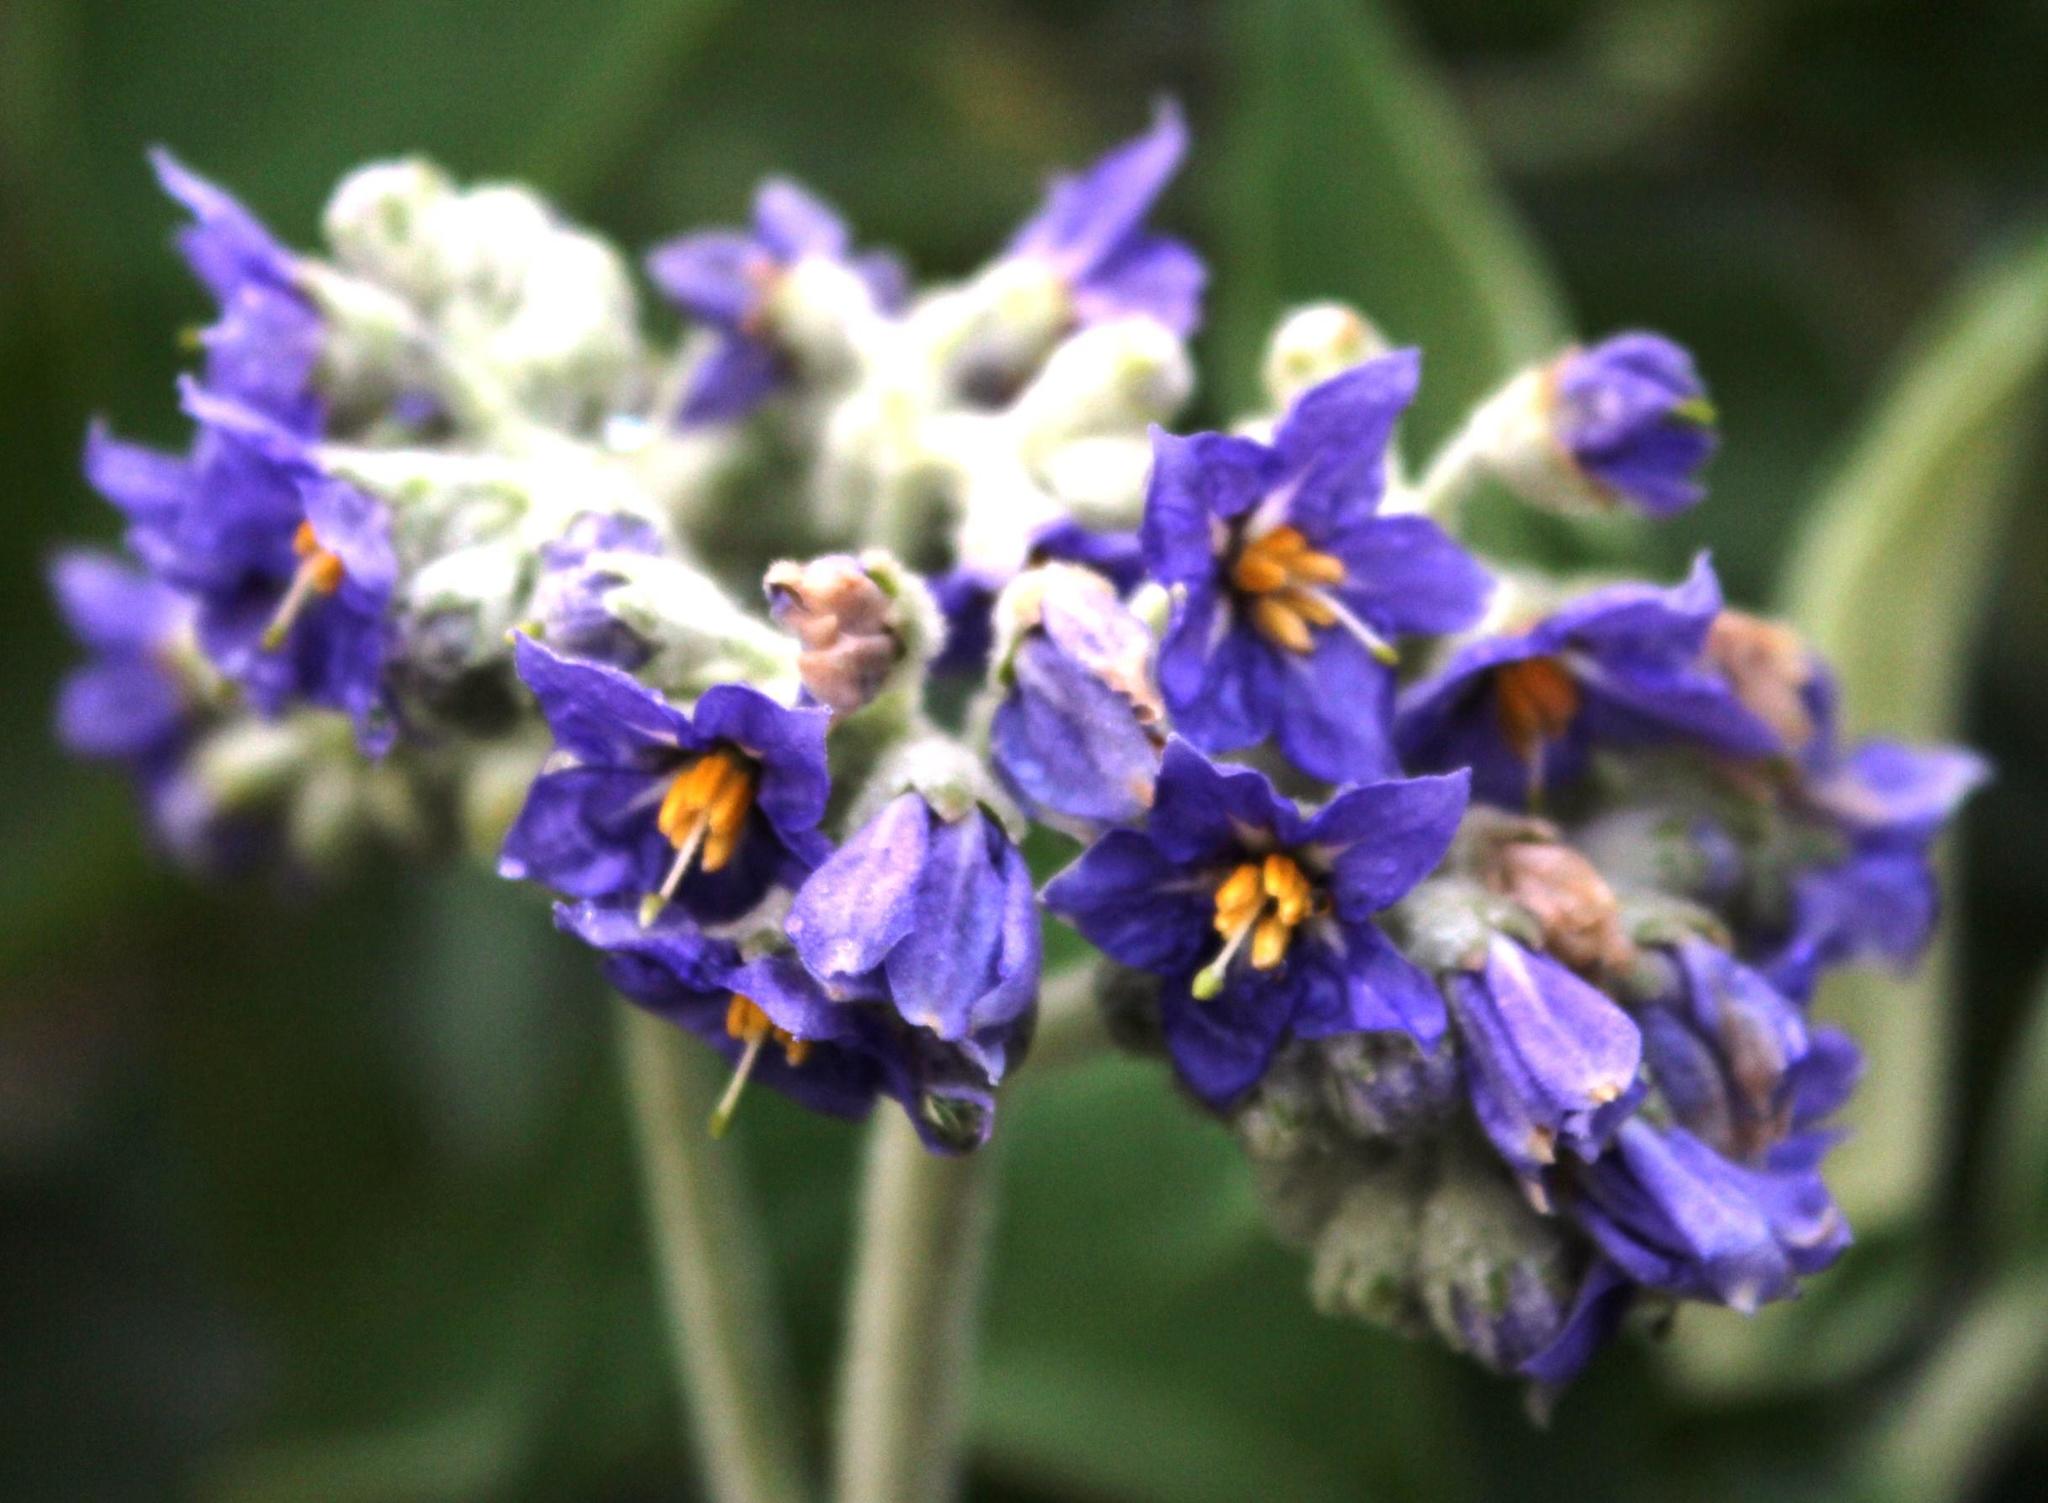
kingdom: Plantae
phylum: Tracheophyta
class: Magnoliopsida
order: Solanales
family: Solanaceae
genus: Solanum
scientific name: Solanum mauritianum
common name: Earleaf nightshade
